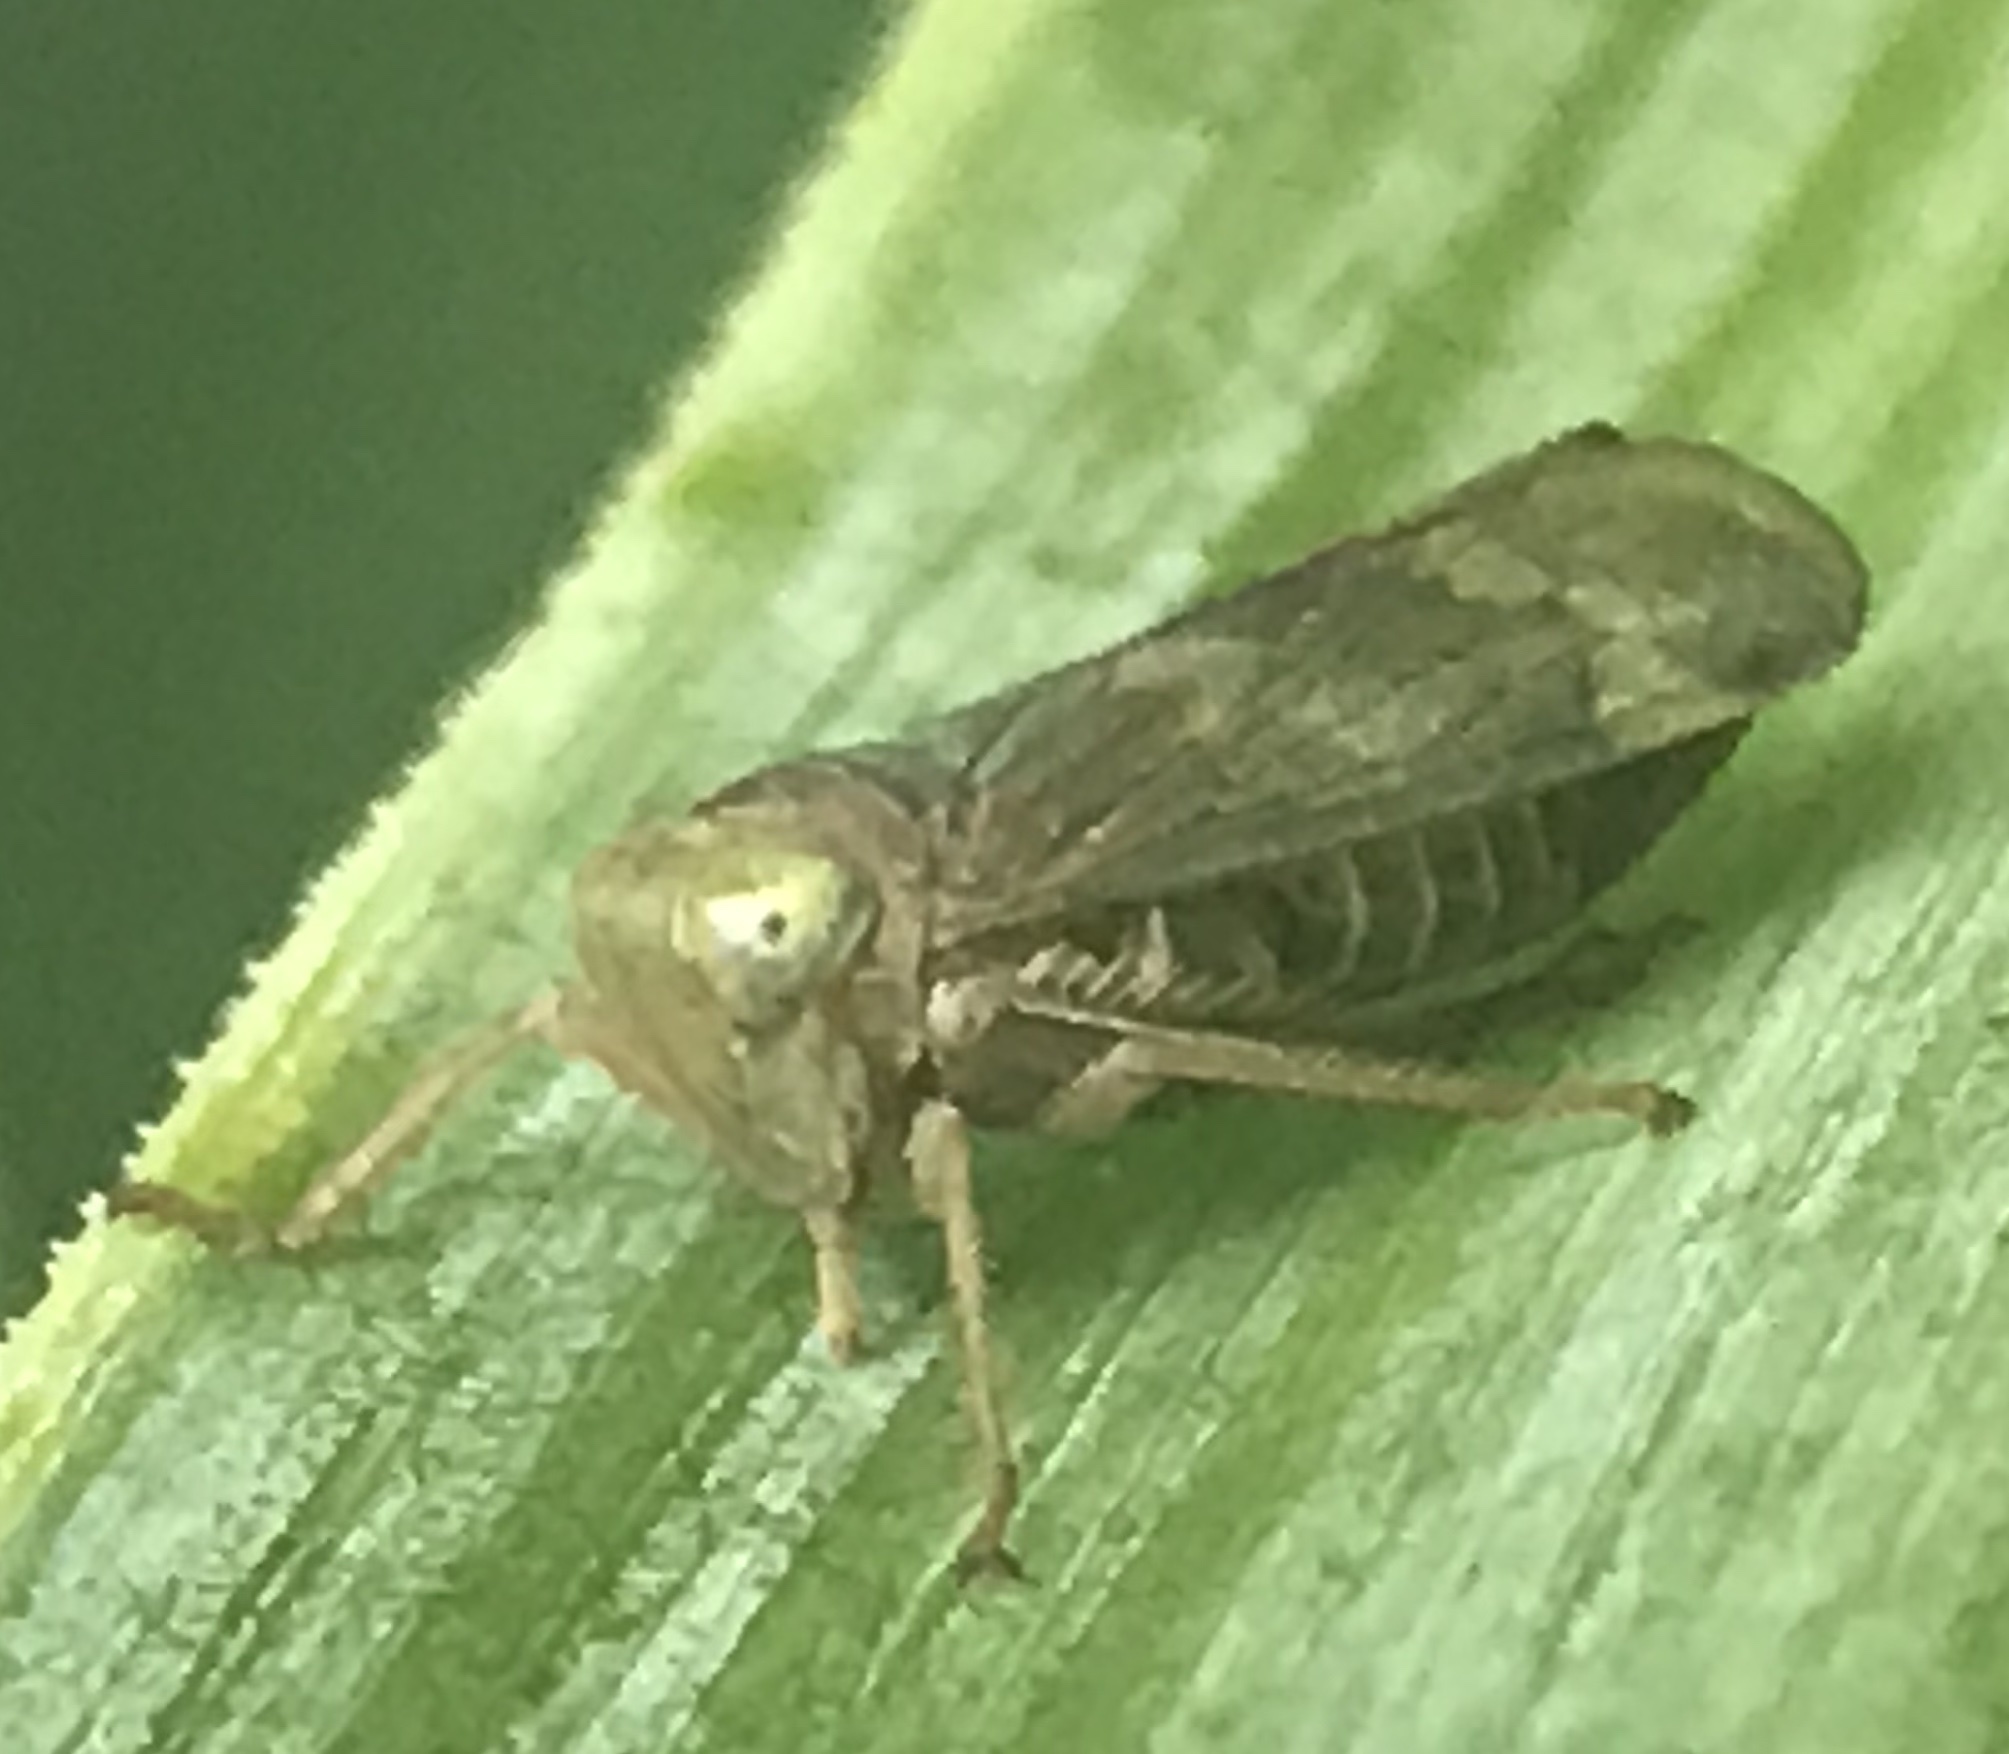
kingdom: Animalia
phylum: Arthropoda
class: Insecta
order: Hemiptera
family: Cicadellidae
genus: Jikradia
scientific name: Jikradia olitoria
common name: Coppery leafhopper
